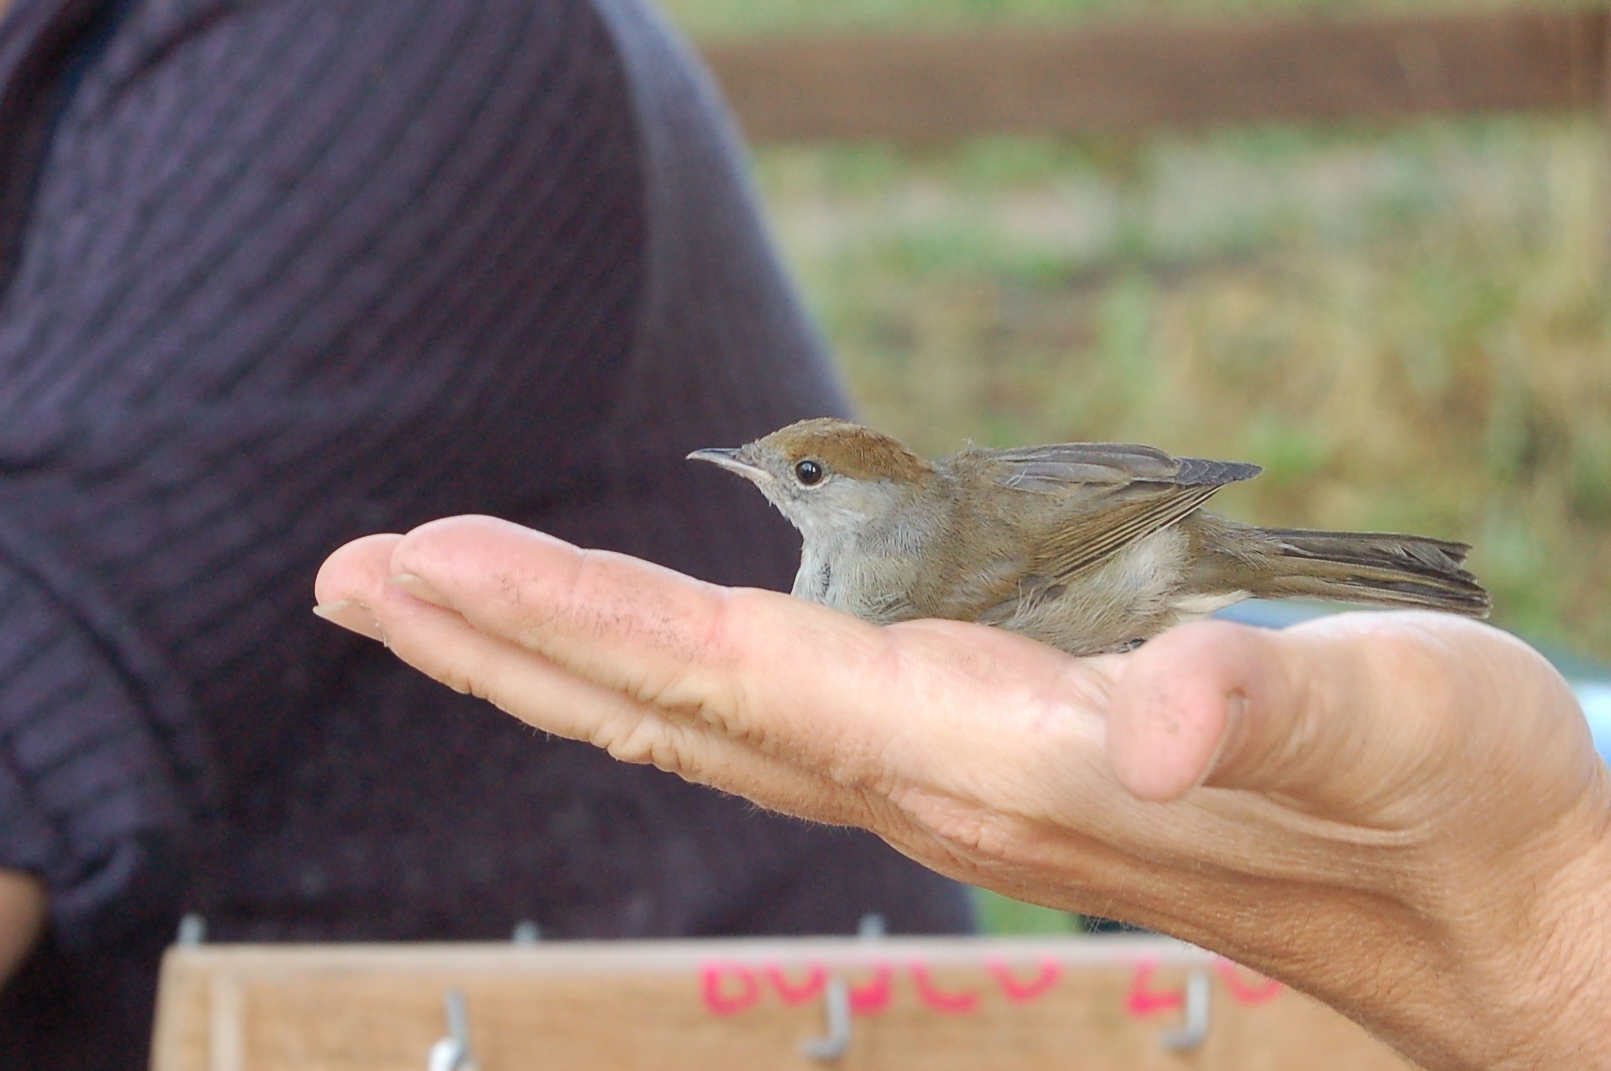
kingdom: Animalia
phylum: Chordata
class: Aves
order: Passeriformes
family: Sylviidae
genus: Sylvia
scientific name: Sylvia atricapilla
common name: Eurasian blackcap
